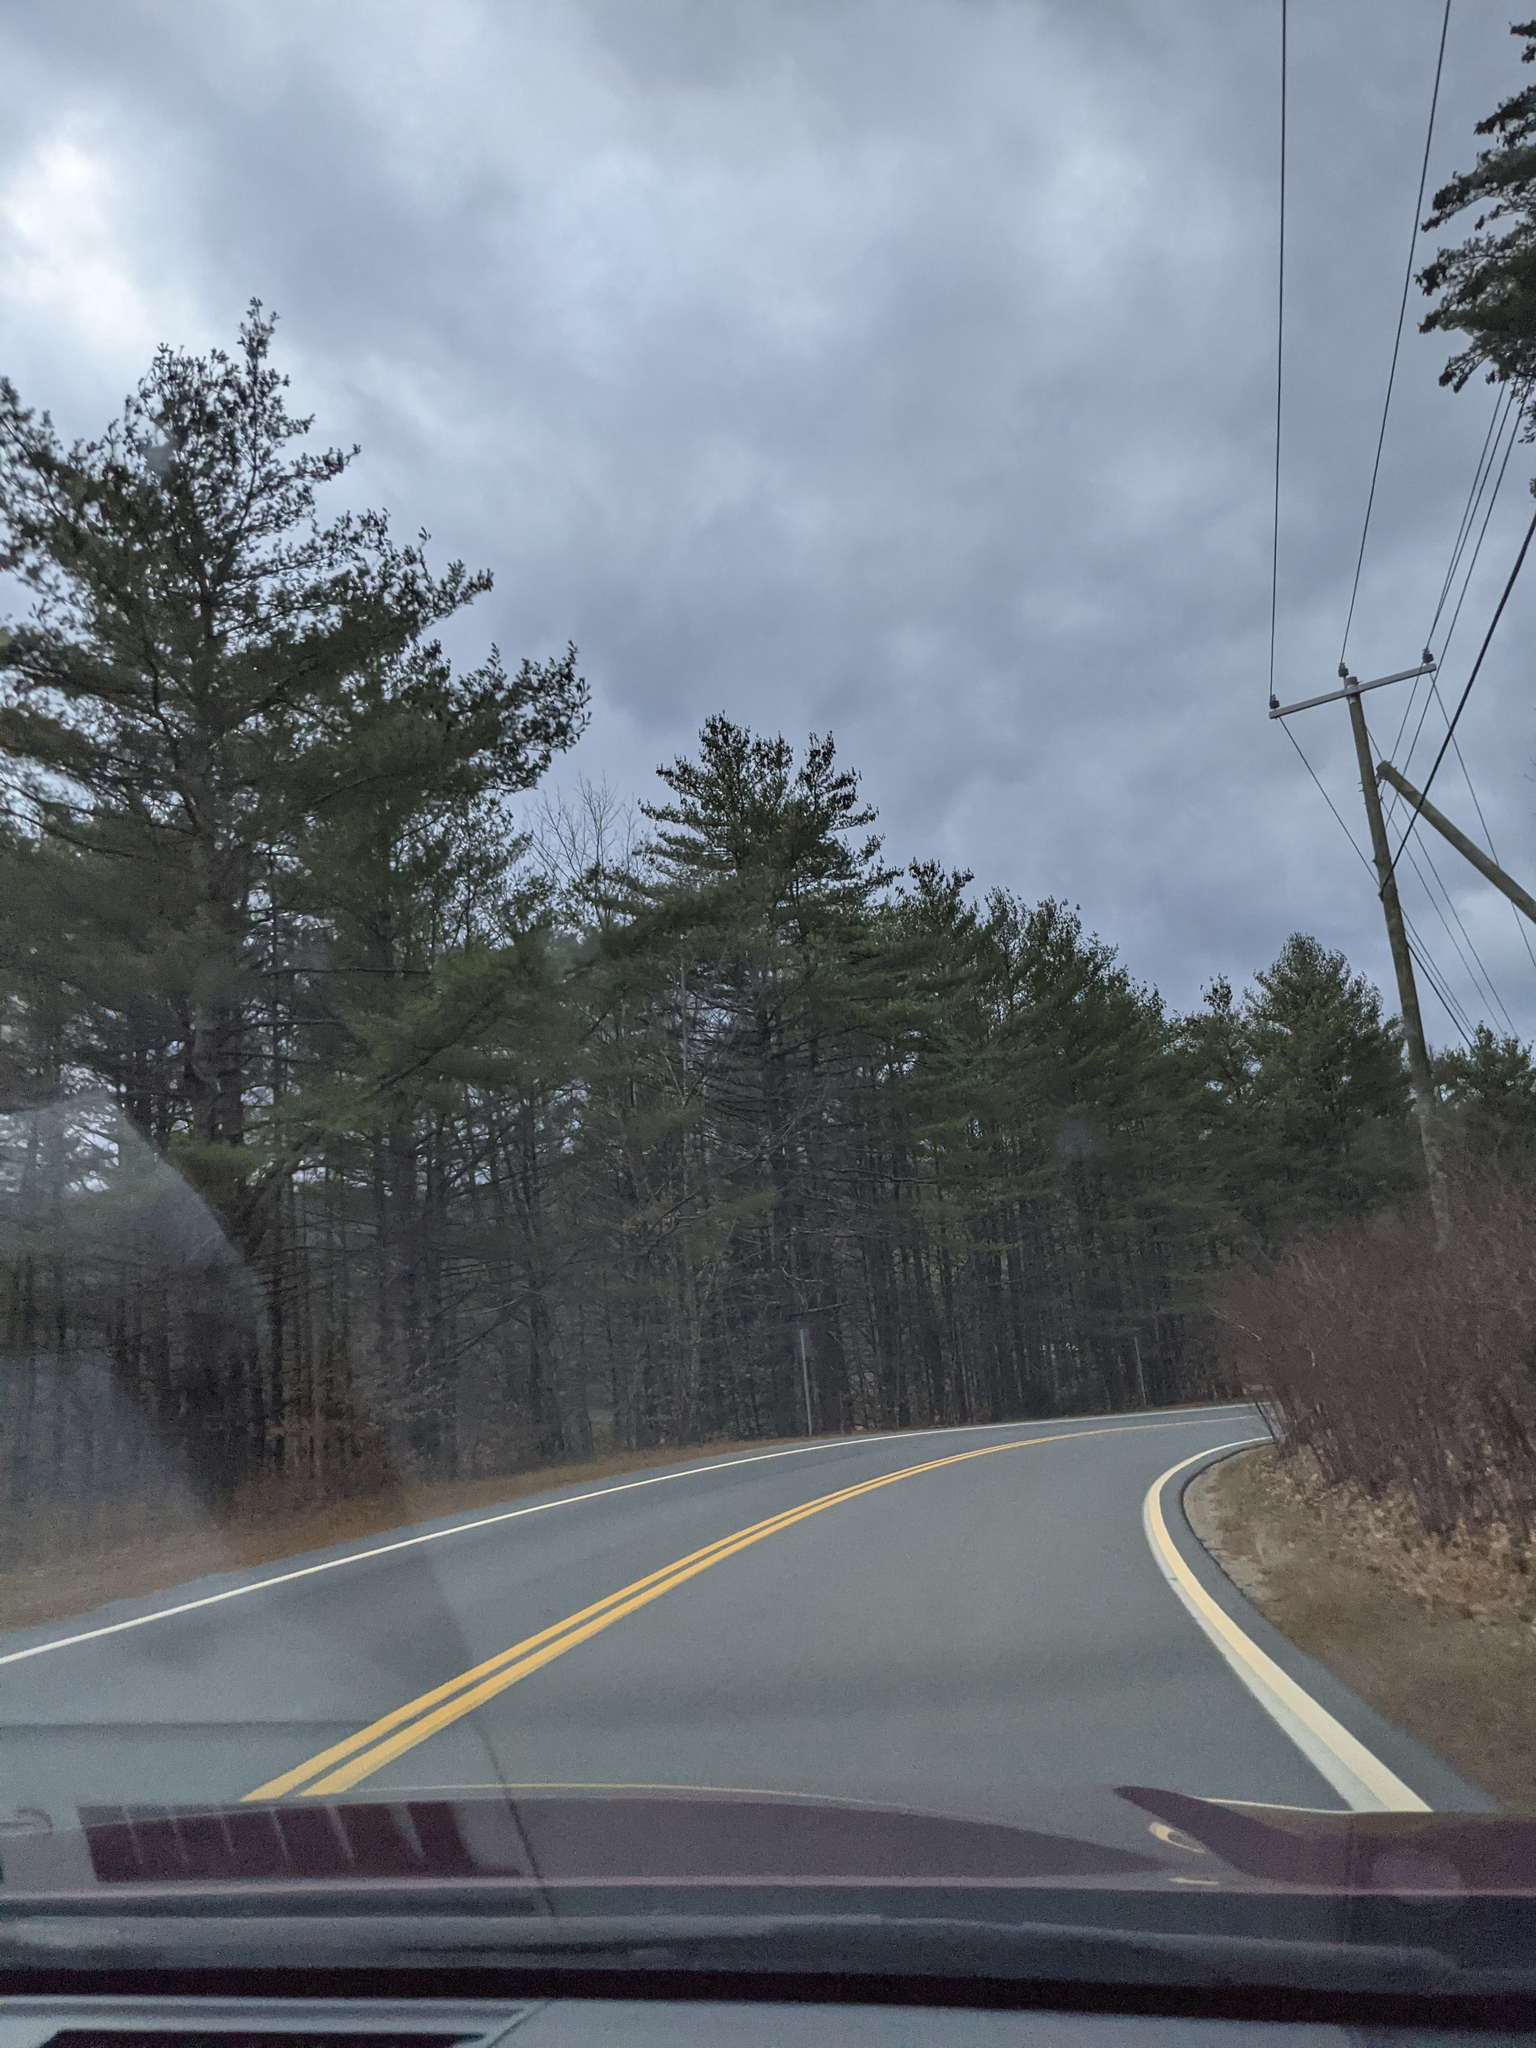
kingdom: Plantae
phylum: Tracheophyta
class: Pinopsida
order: Pinales
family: Pinaceae
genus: Pinus
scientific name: Pinus strobus
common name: Weymouth pine
